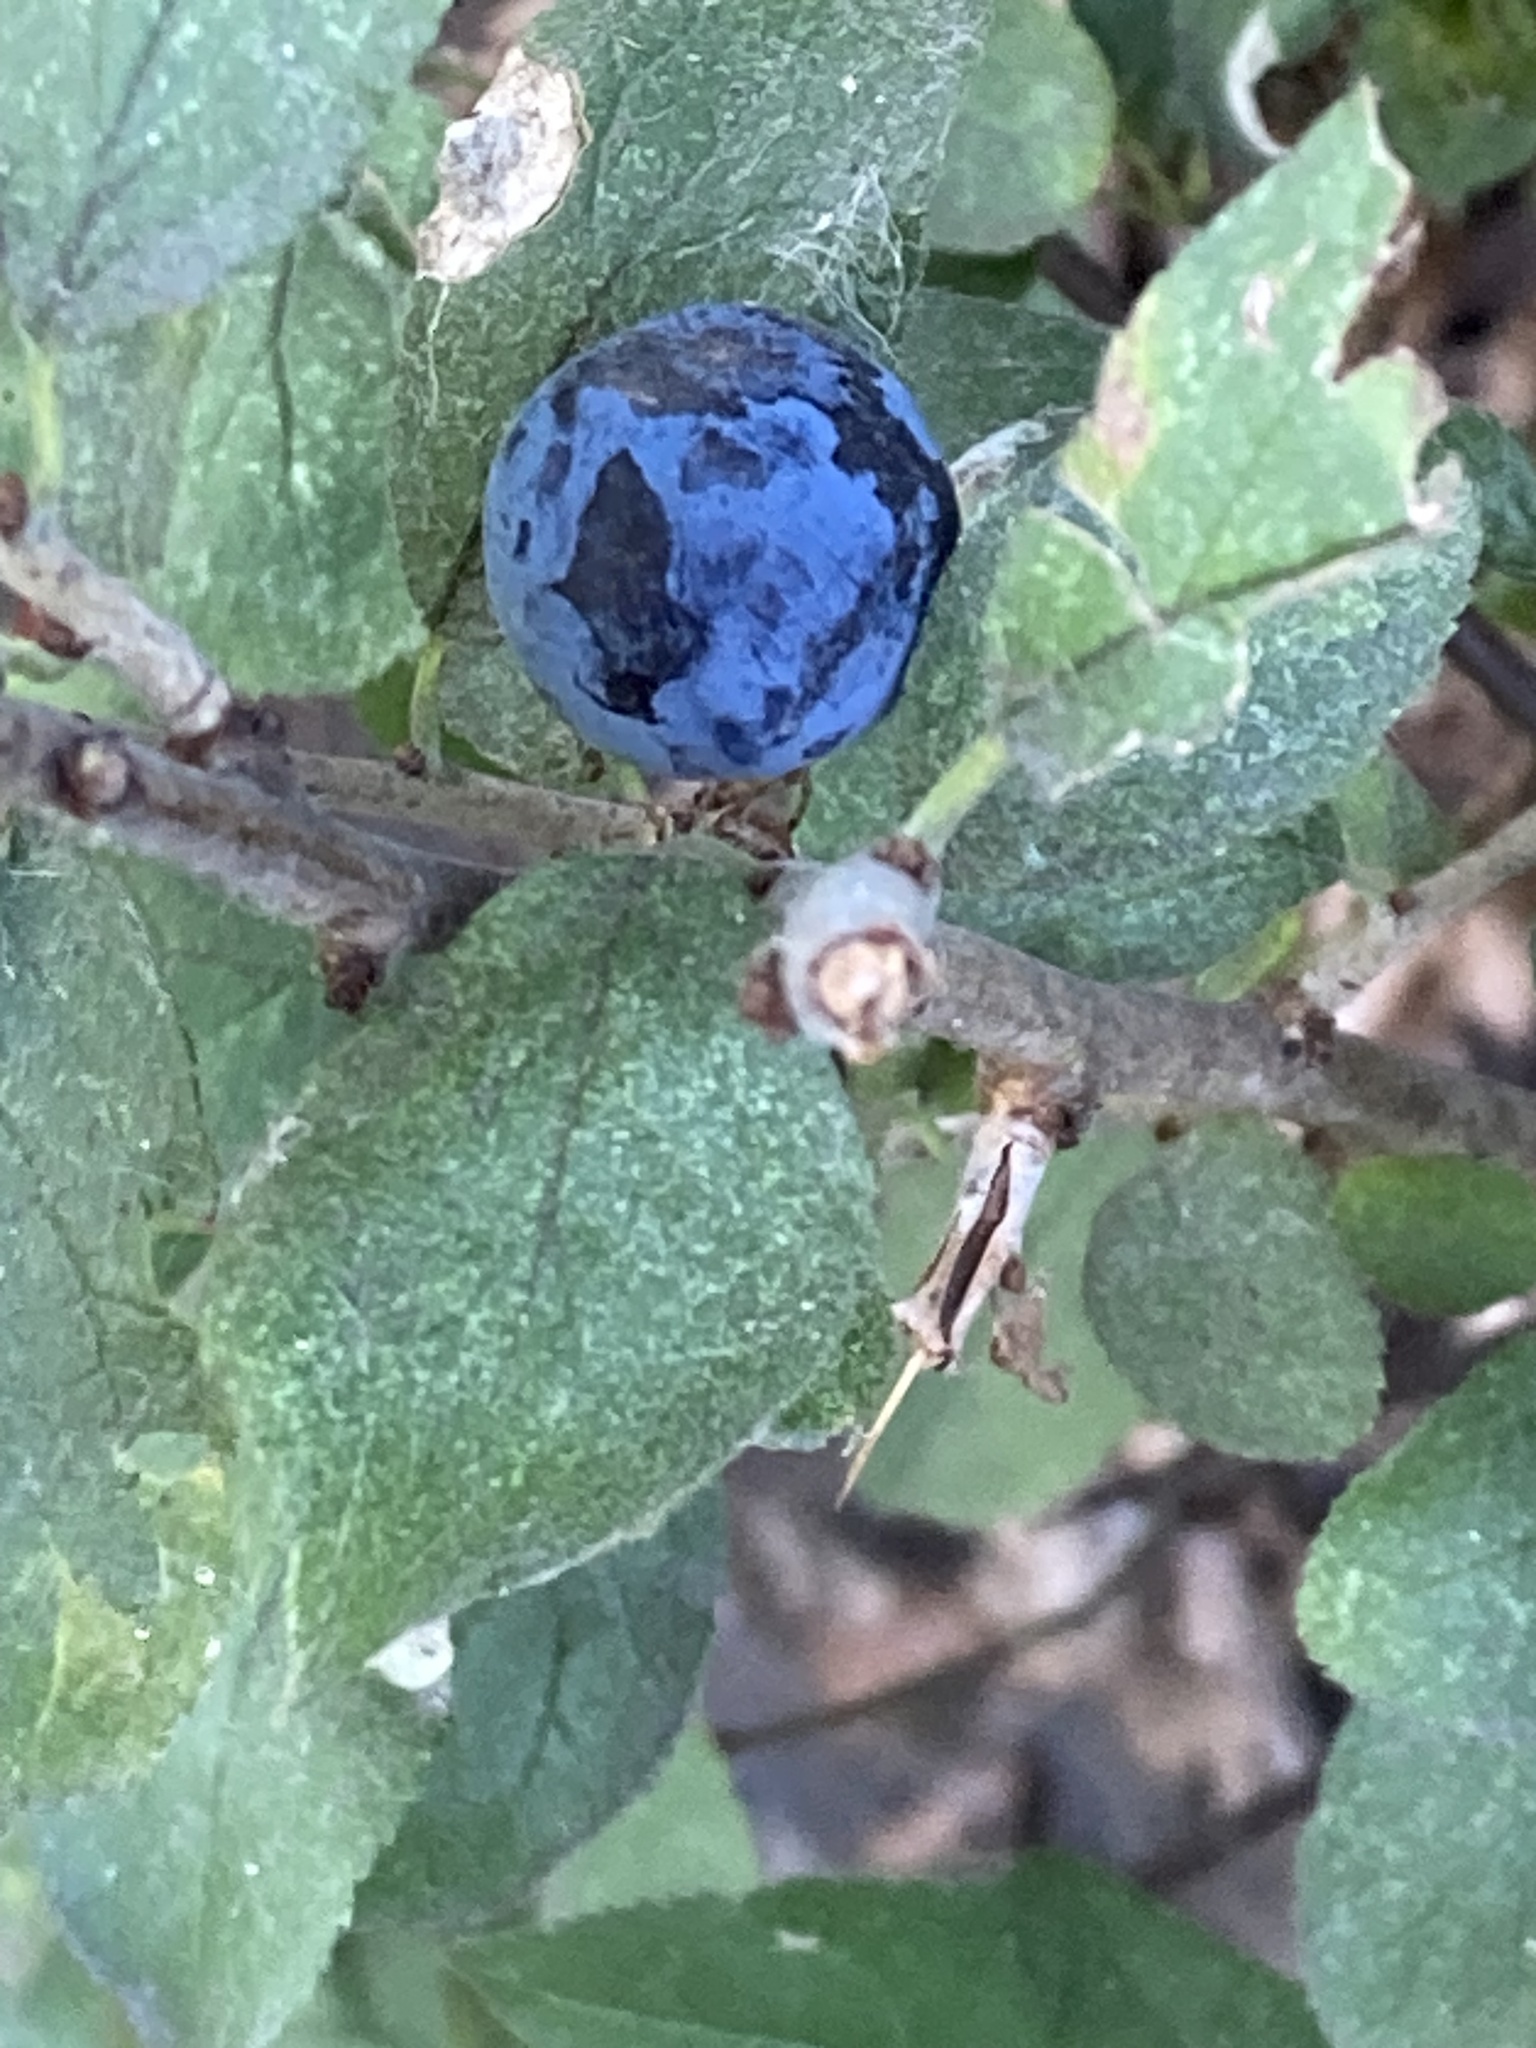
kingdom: Plantae
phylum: Tracheophyta
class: Magnoliopsida
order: Rosales
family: Rosaceae
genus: Prunus
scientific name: Prunus spinosa
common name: Blackthorn
